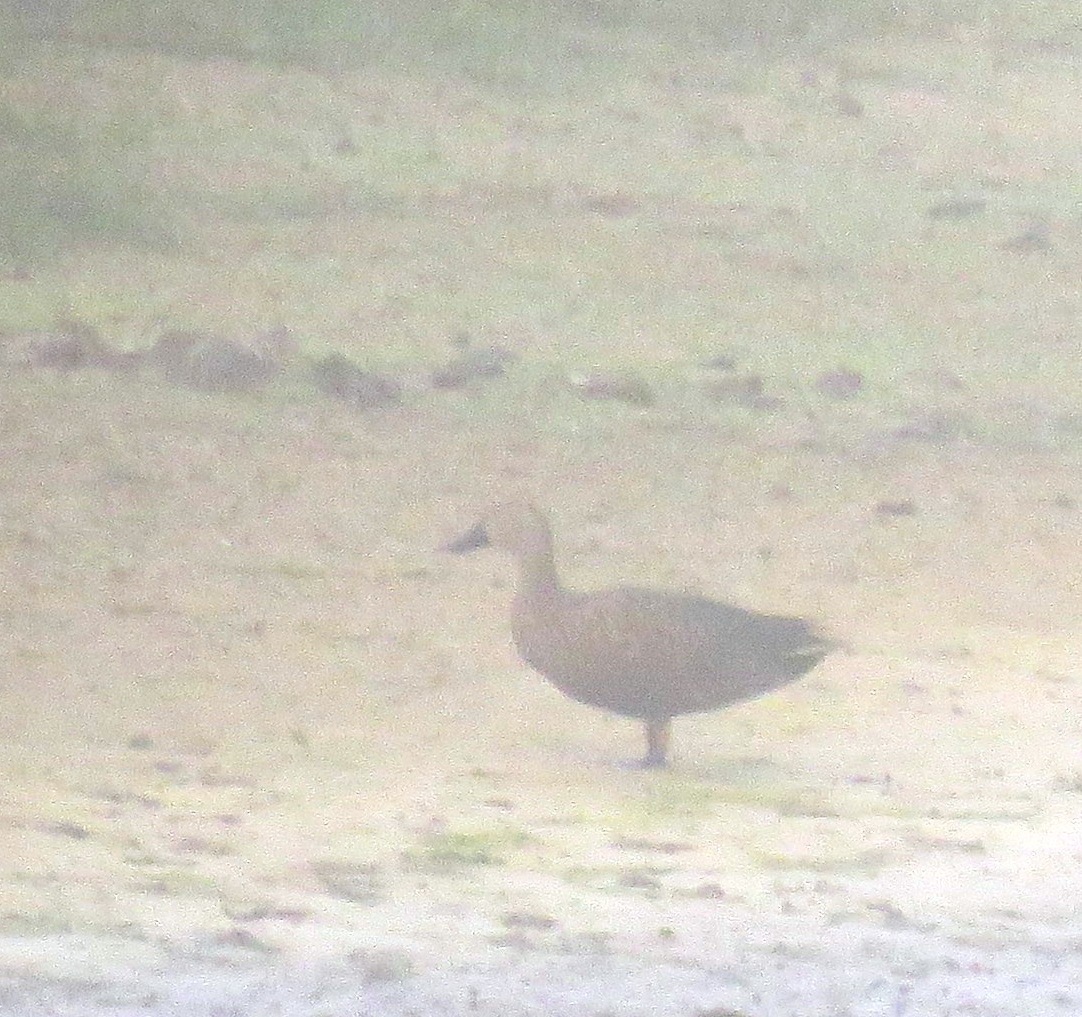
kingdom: Animalia
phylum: Chordata
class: Aves
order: Anseriformes
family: Anatidae
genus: Spatula
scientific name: Spatula smithii
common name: Cape shoveler
